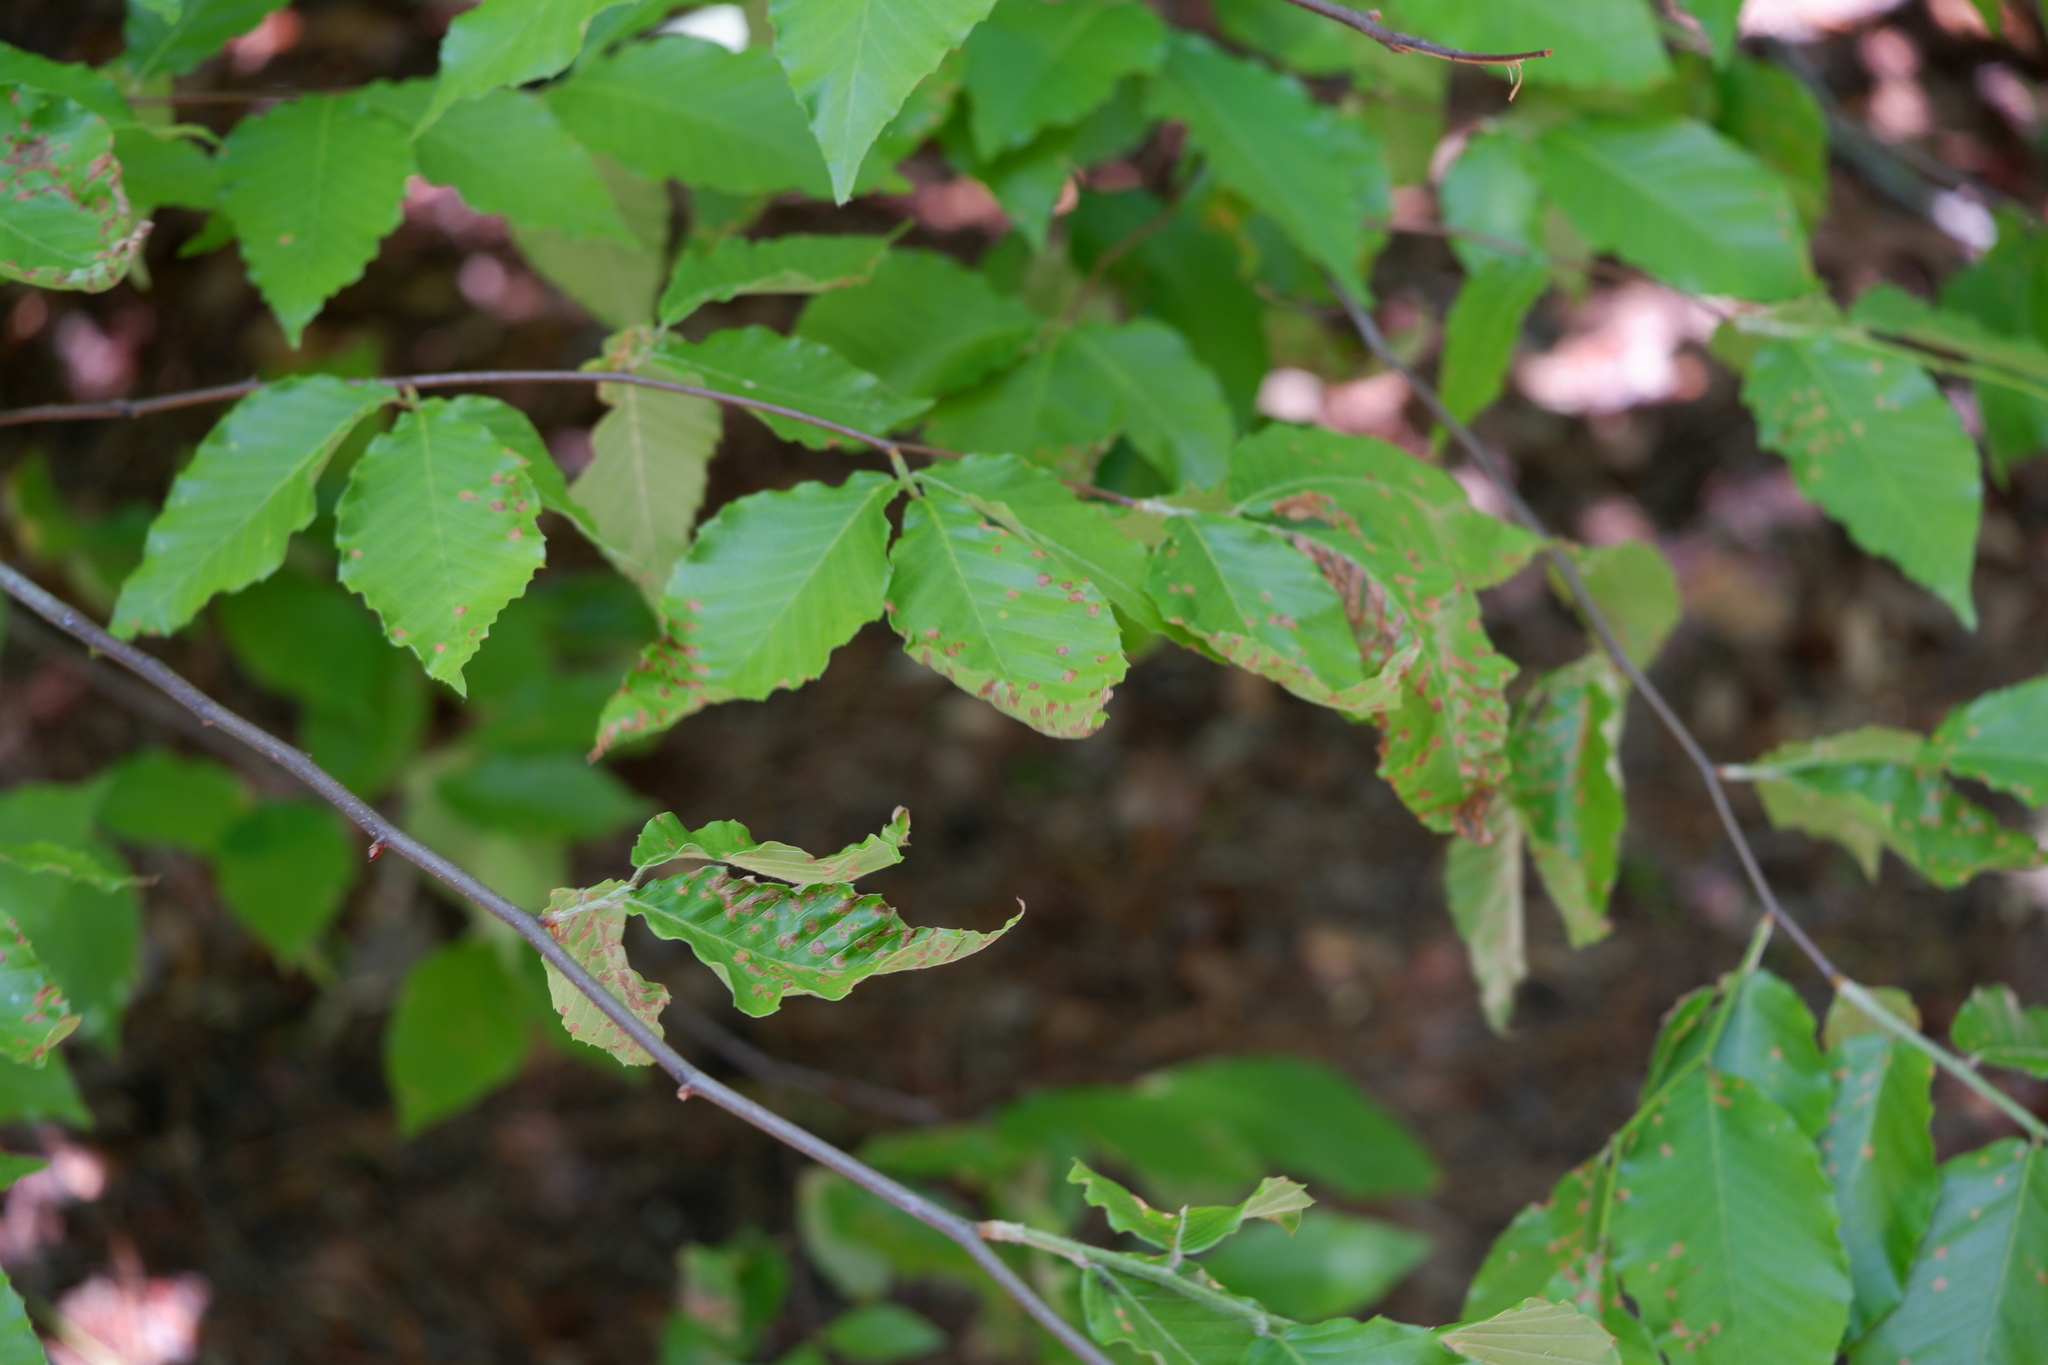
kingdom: Plantae
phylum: Tracheophyta
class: Magnoliopsida
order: Fagales
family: Fagaceae
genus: Fagus
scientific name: Fagus grandifolia
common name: American beech
